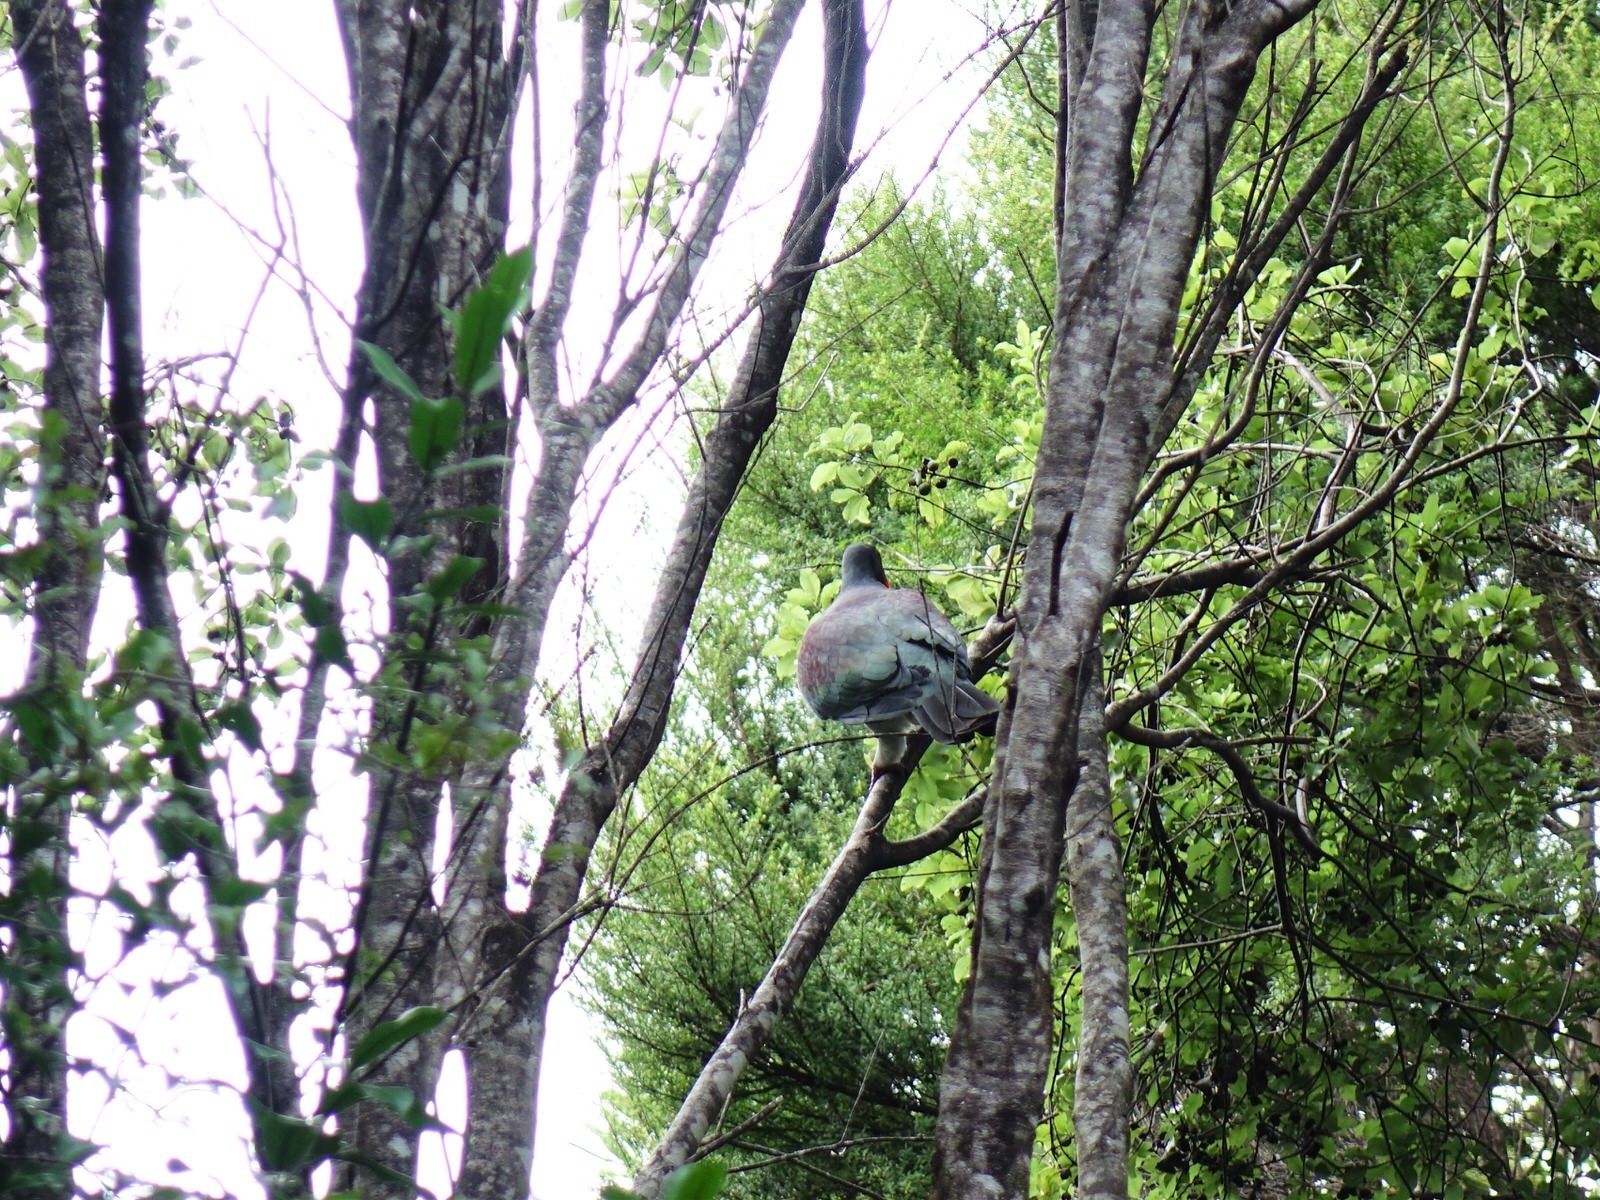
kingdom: Animalia
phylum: Chordata
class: Aves
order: Columbiformes
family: Columbidae
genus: Hemiphaga
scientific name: Hemiphaga novaeseelandiae
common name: New zealand pigeon
